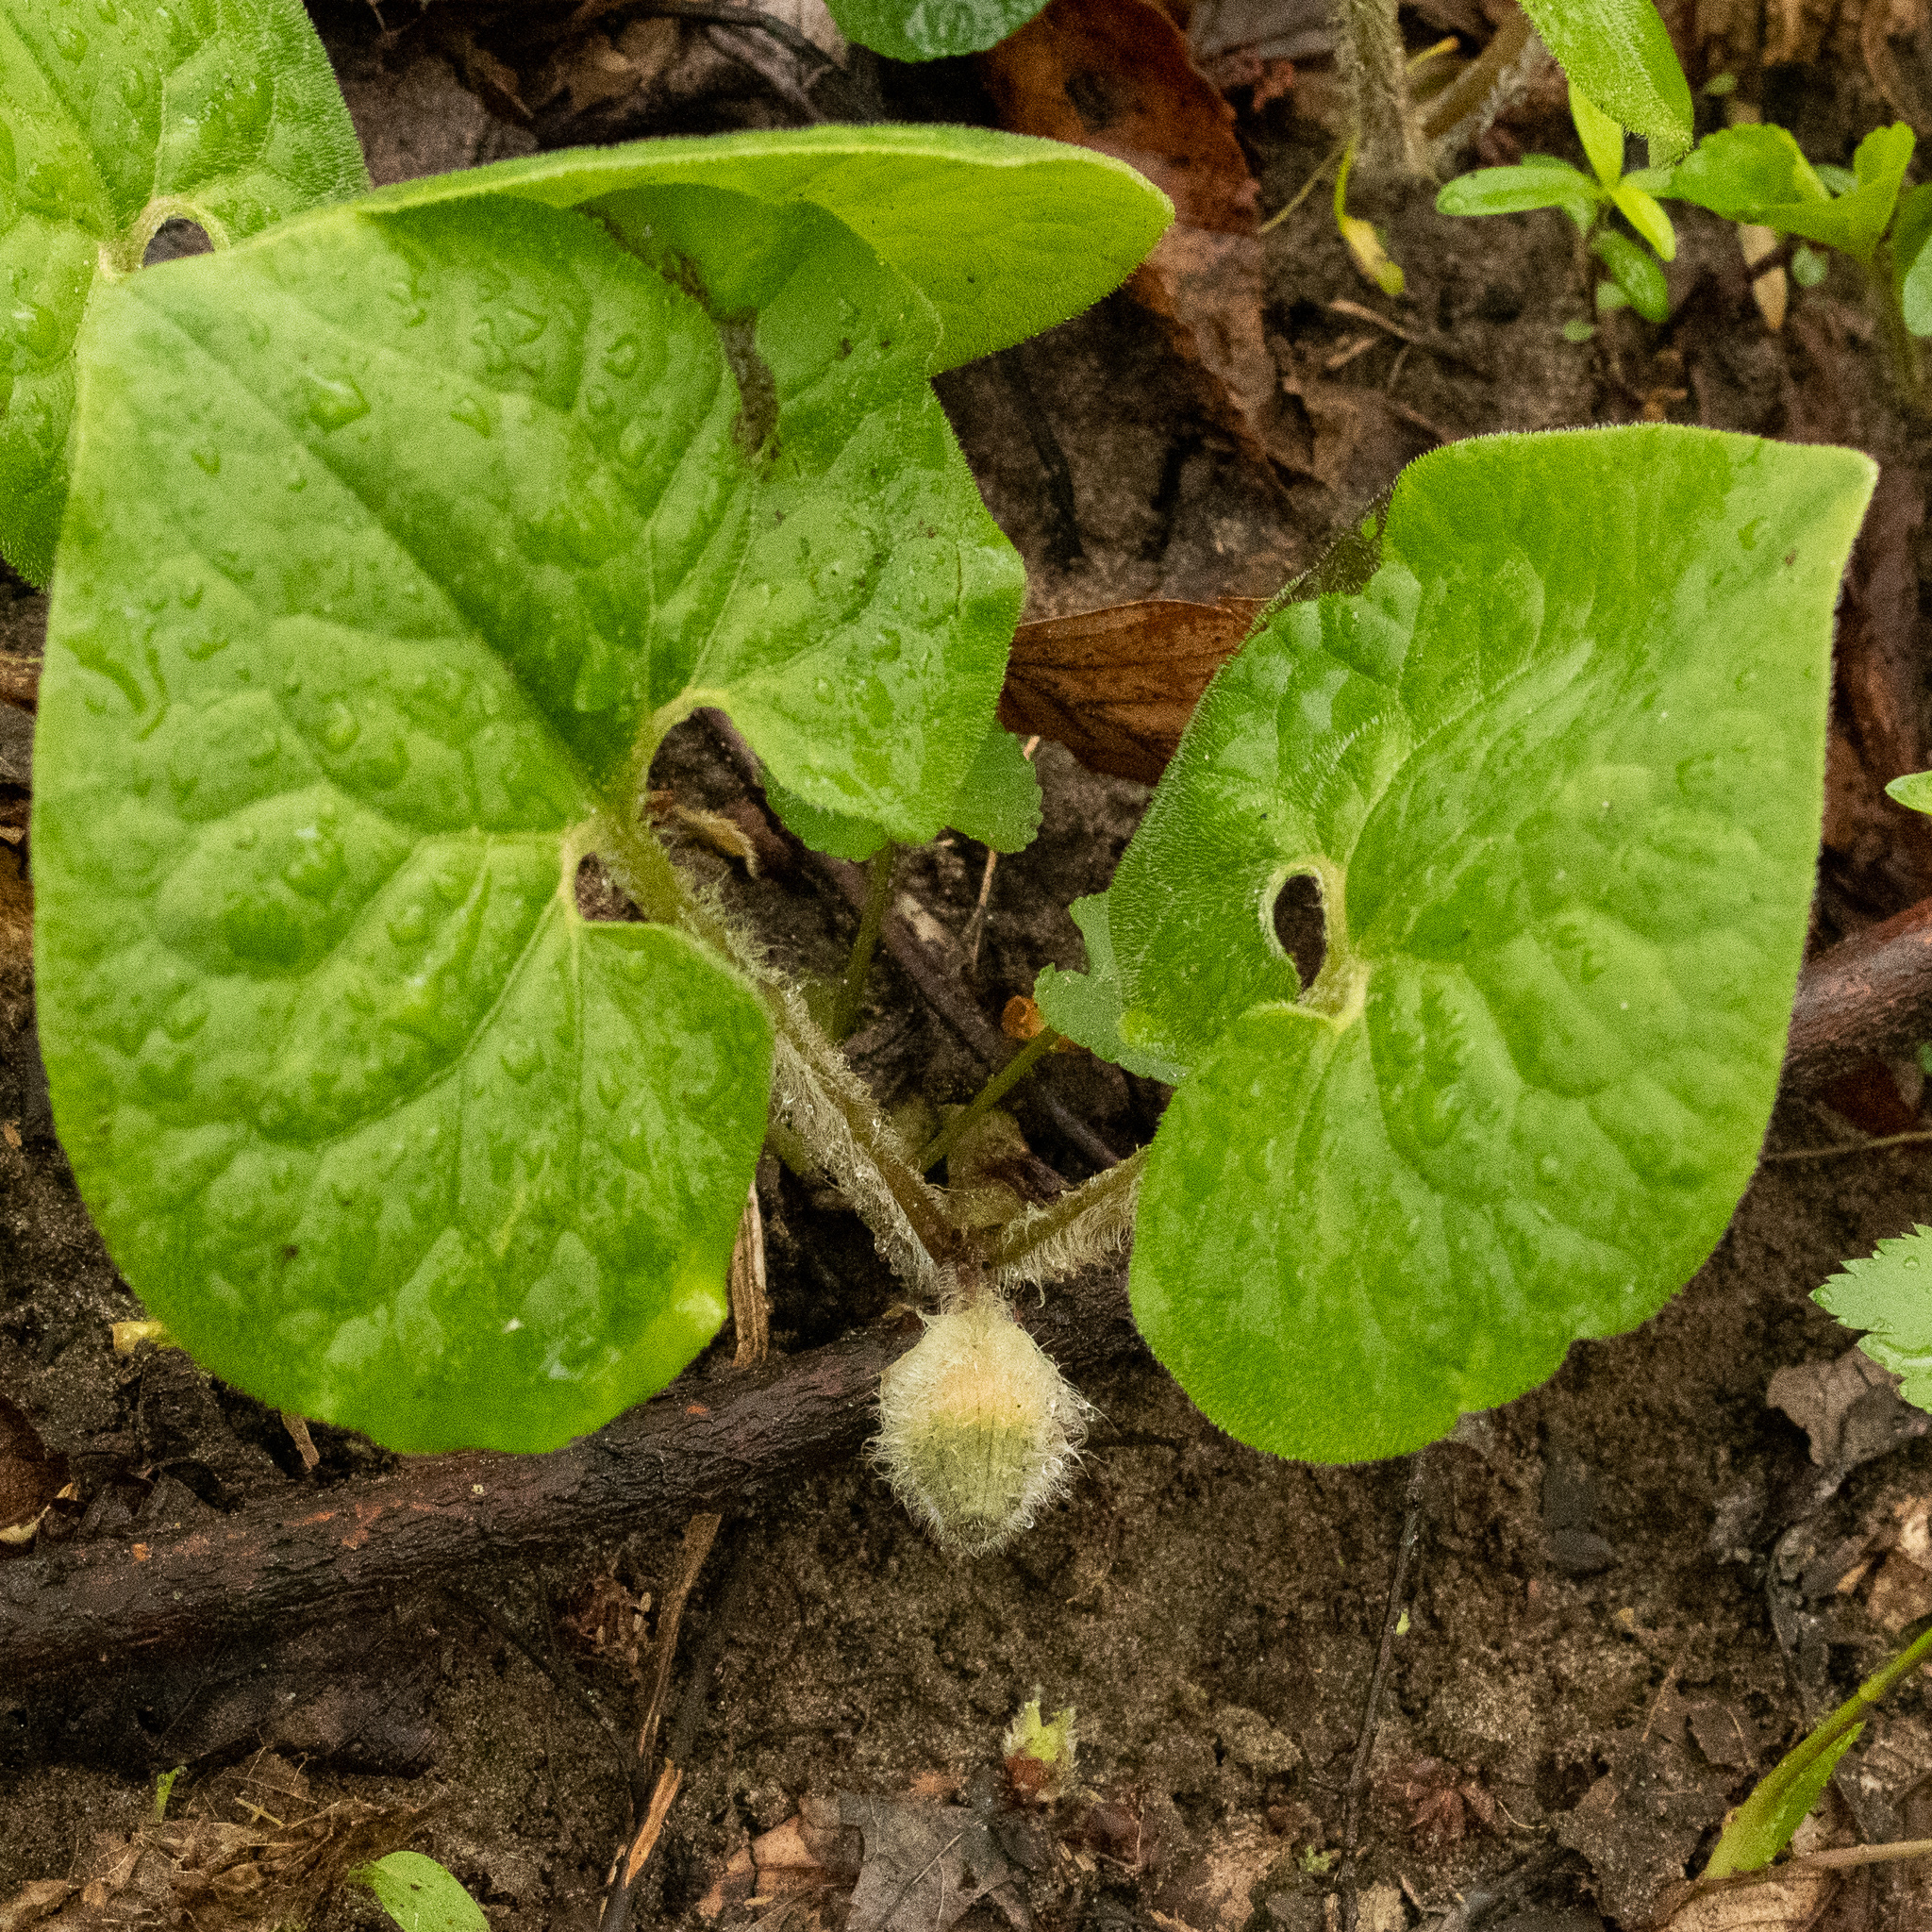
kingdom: Plantae
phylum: Tracheophyta
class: Magnoliopsida
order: Piperales
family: Aristolochiaceae
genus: Asarum
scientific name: Asarum canadense
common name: Wild ginger
